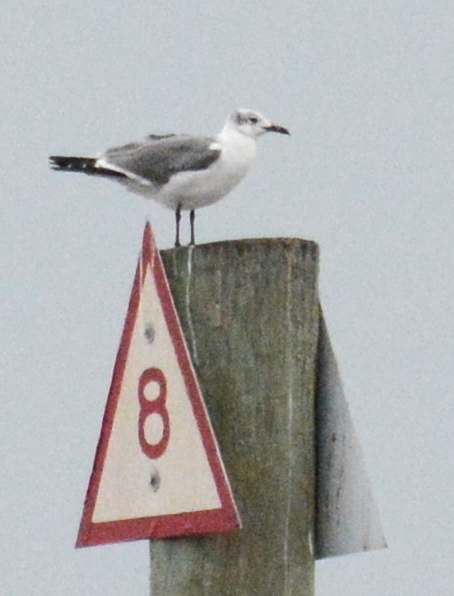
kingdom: Animalia
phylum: Chordata
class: Aves
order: Charadriiformes
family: Laridae
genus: Leucophaeus
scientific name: Leucophaeus atricilla
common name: Laughing gull
